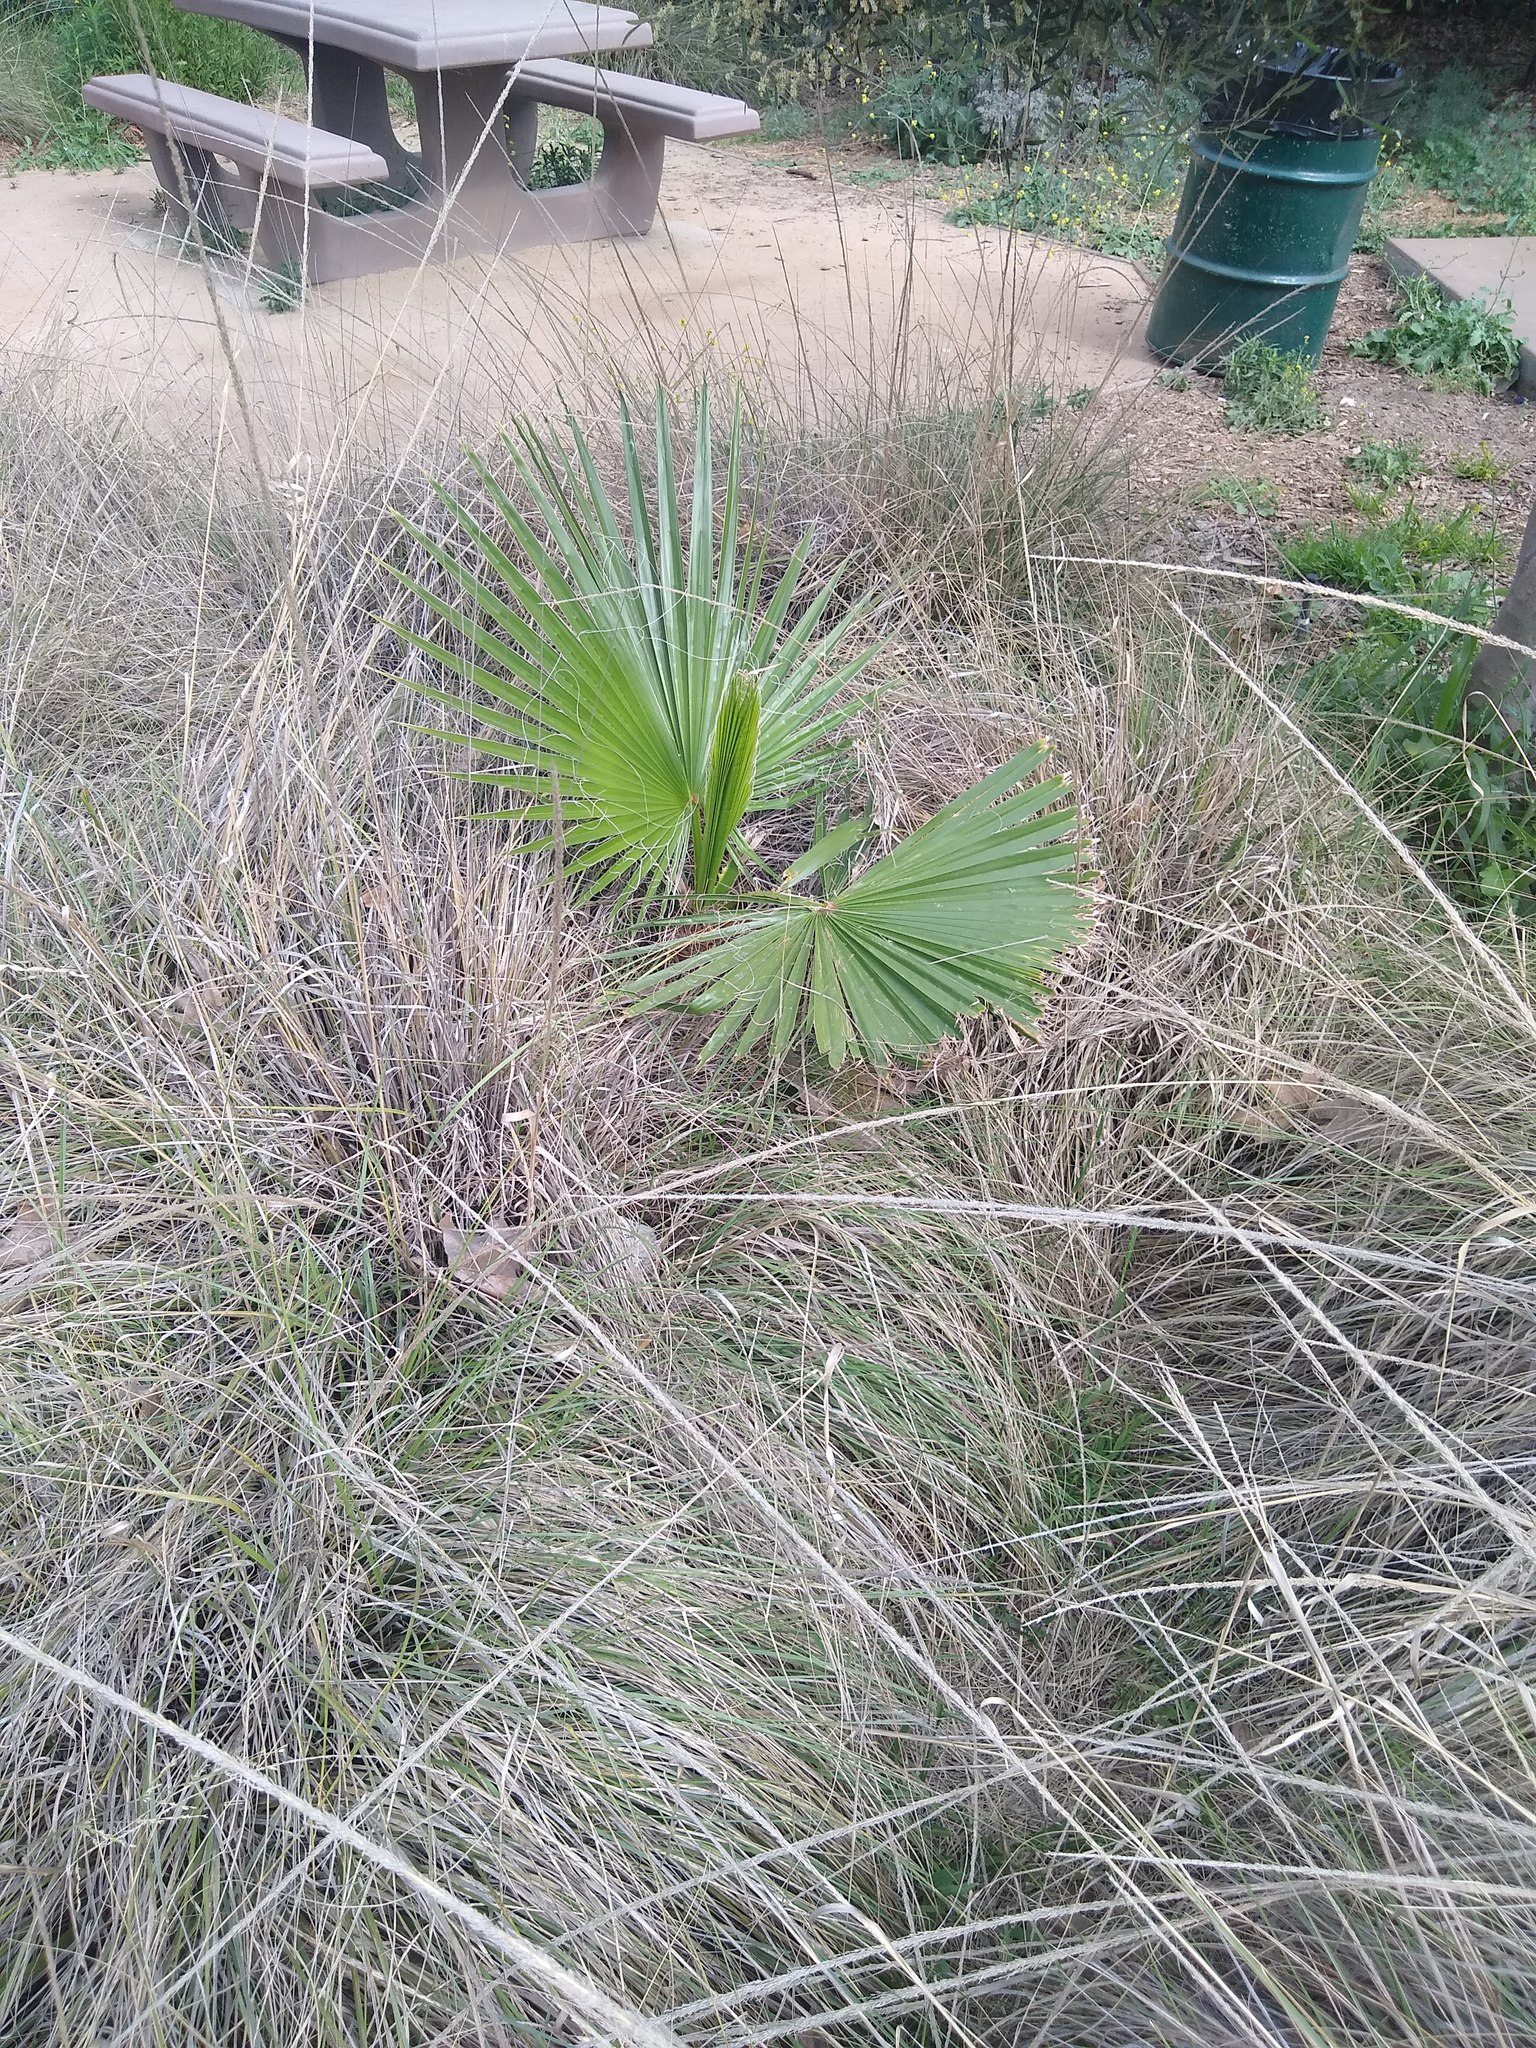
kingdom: Plantae
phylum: Tracheophyta
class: Liliopsida
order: Arecales
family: Arecaceae
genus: Washingtonia
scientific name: Washingtonia robusta
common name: Mexican fan palm
